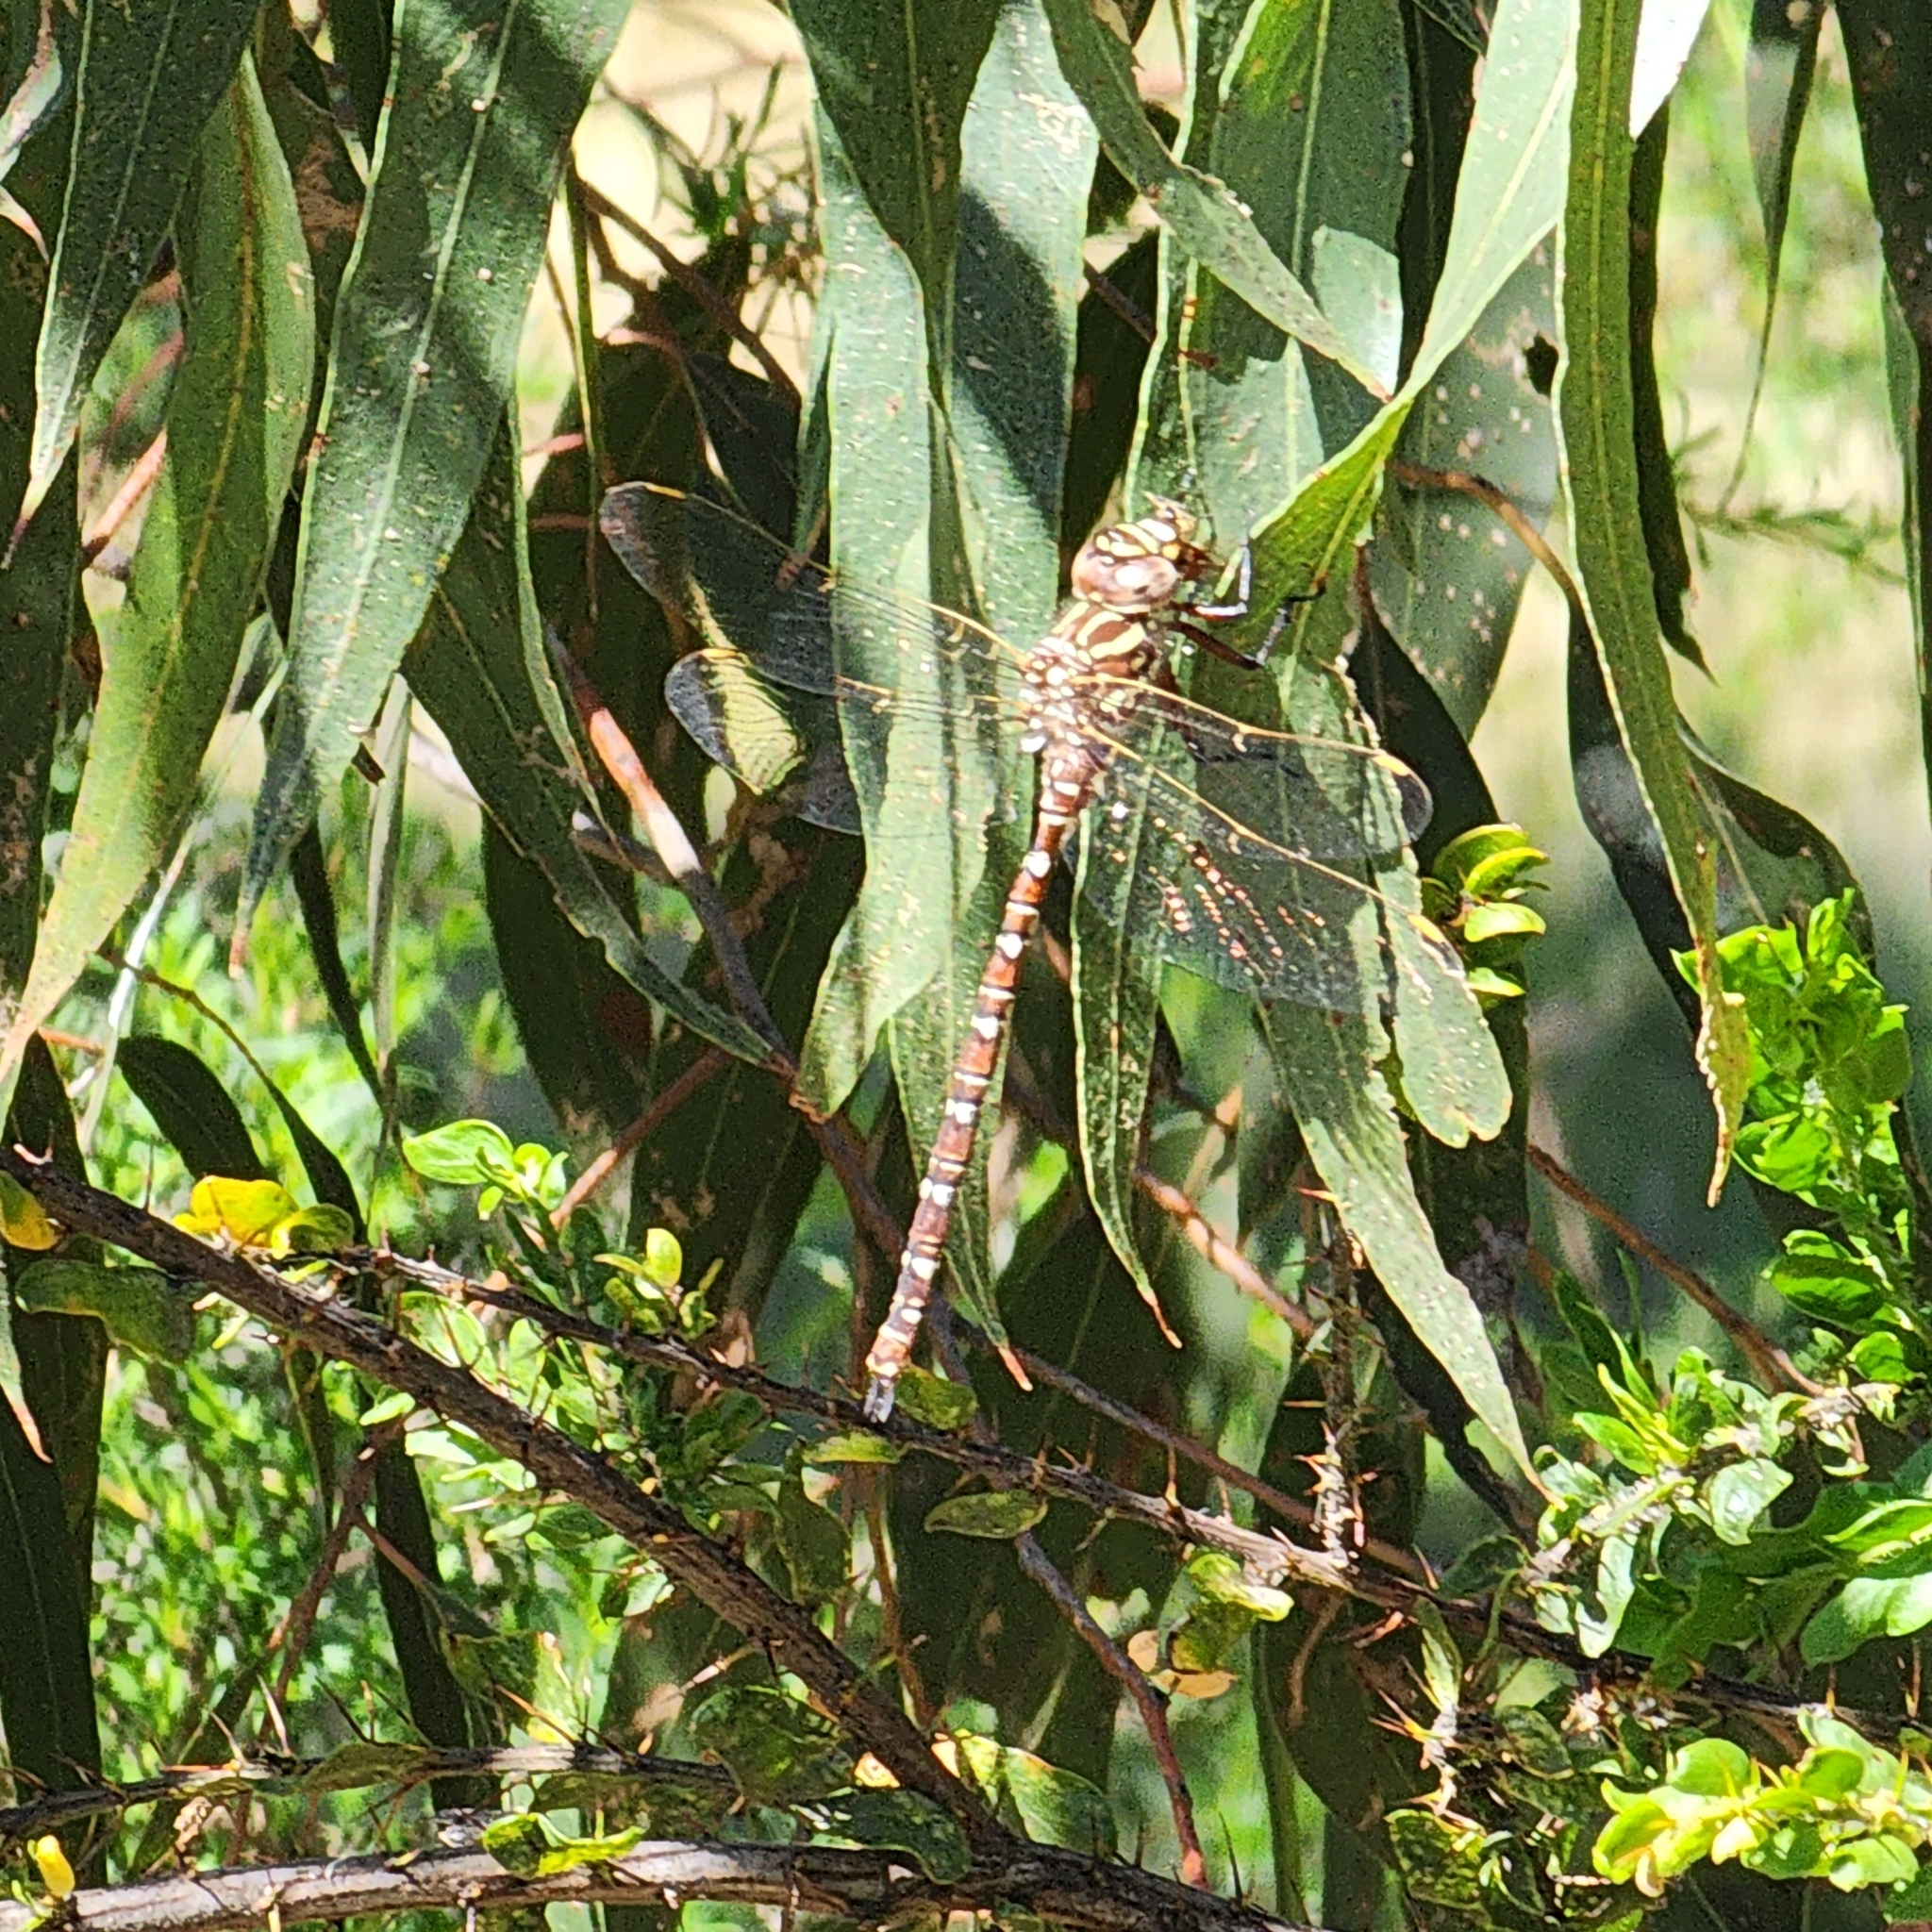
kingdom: Animalia
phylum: Arthropoda
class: Insecta
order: Odonata
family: Aeshnidae
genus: Austroaeschna
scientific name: Austroaeschna unicornis
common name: Unicorn darner
